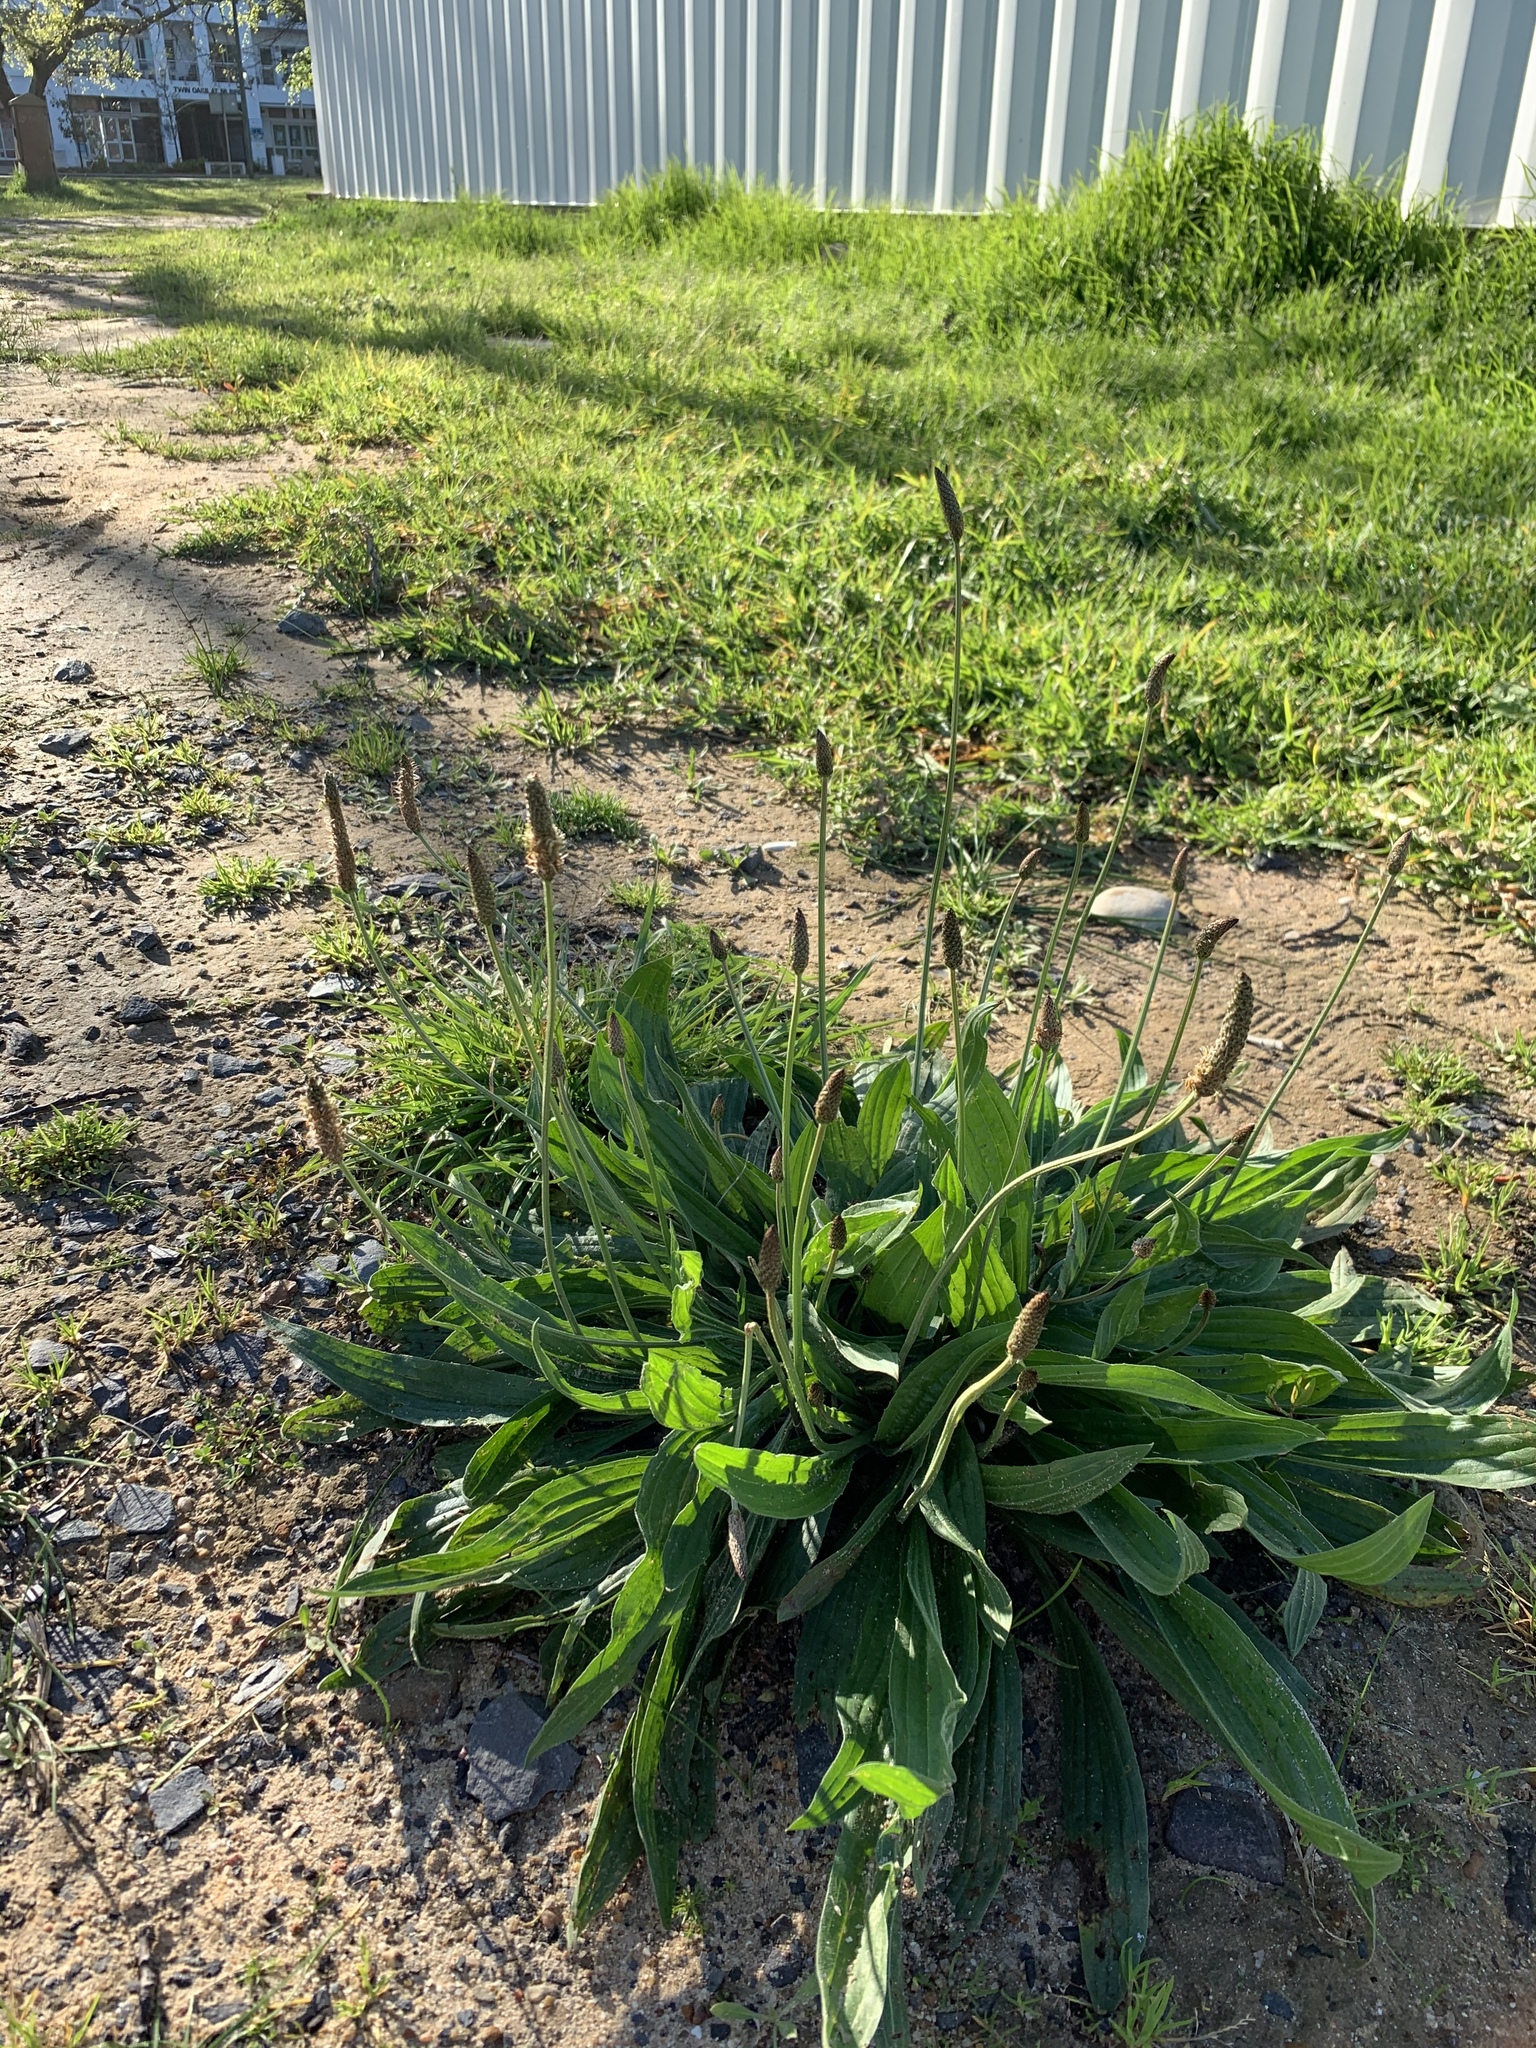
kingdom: Plantae
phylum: Tracheophyta
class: Magnoliopsida
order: Lamiales
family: Plantaginaceae
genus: Plantago
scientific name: Plantago lanceolata
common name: Ribwort plantain
